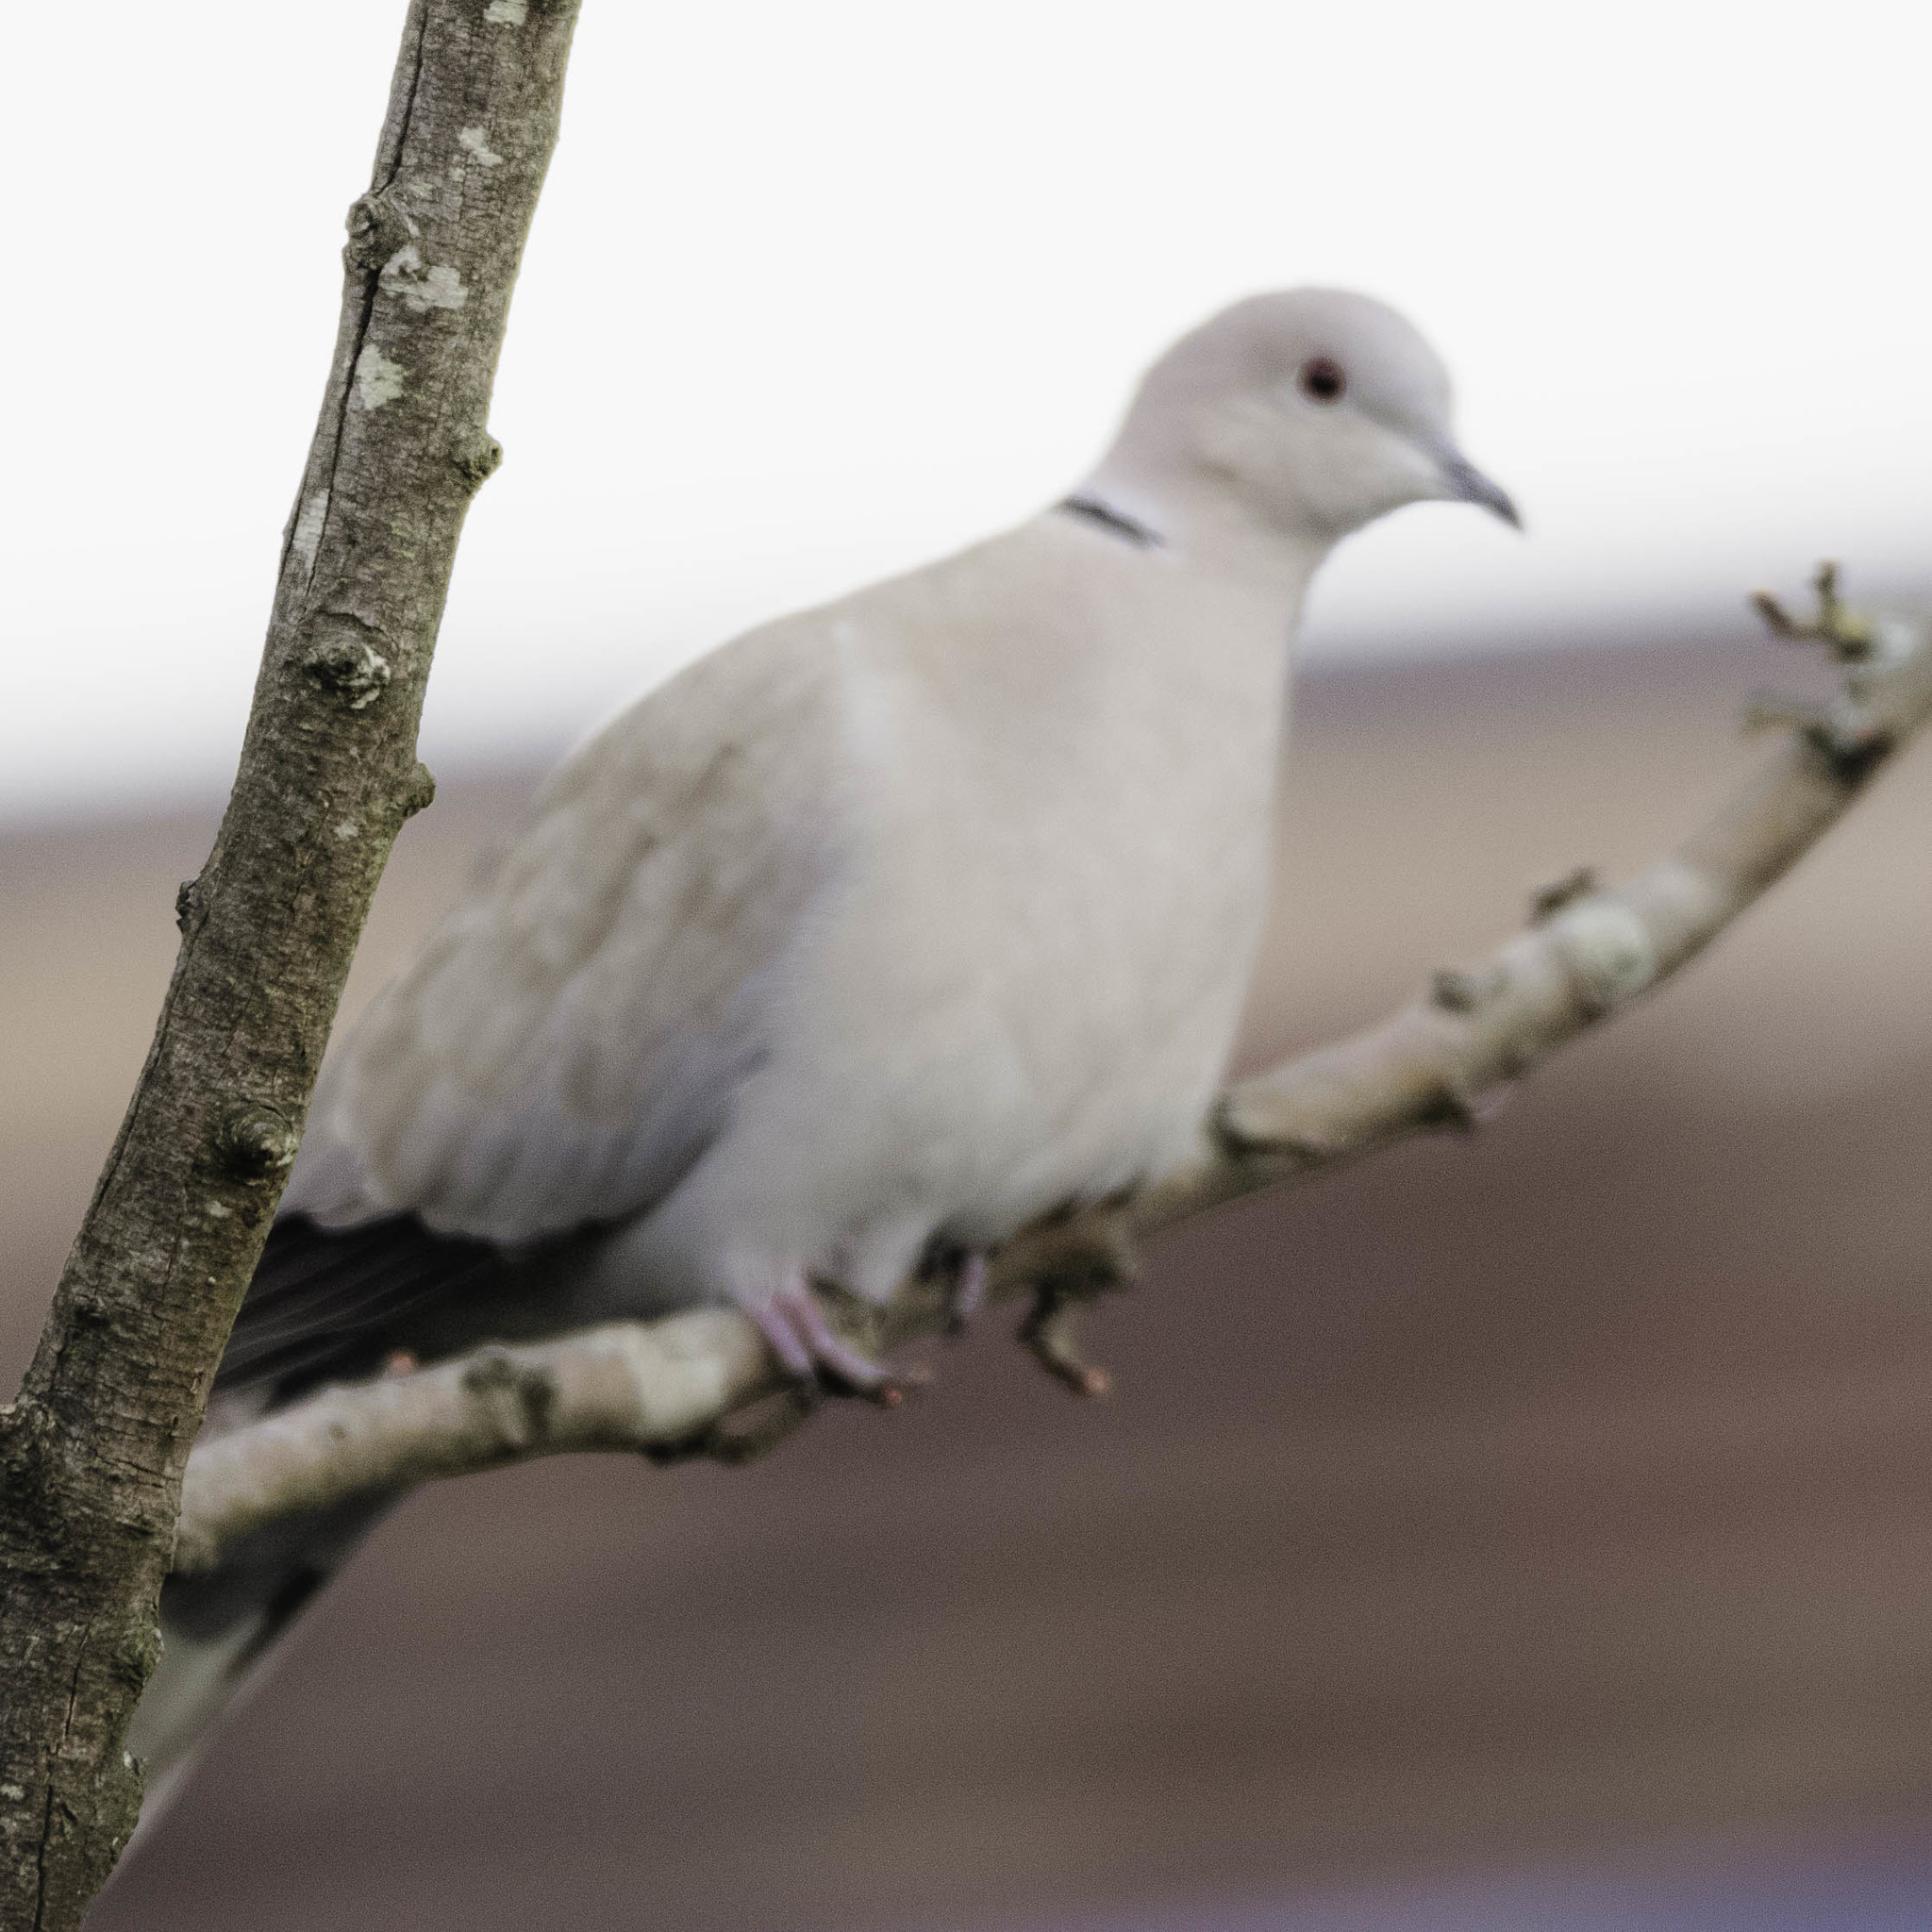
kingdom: Animalia
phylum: Chordata
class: Aves
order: Columbiformes
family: Columbidae
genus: Streptopelia
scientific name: Streptopelia decaocto
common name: Eurasian collared dove
